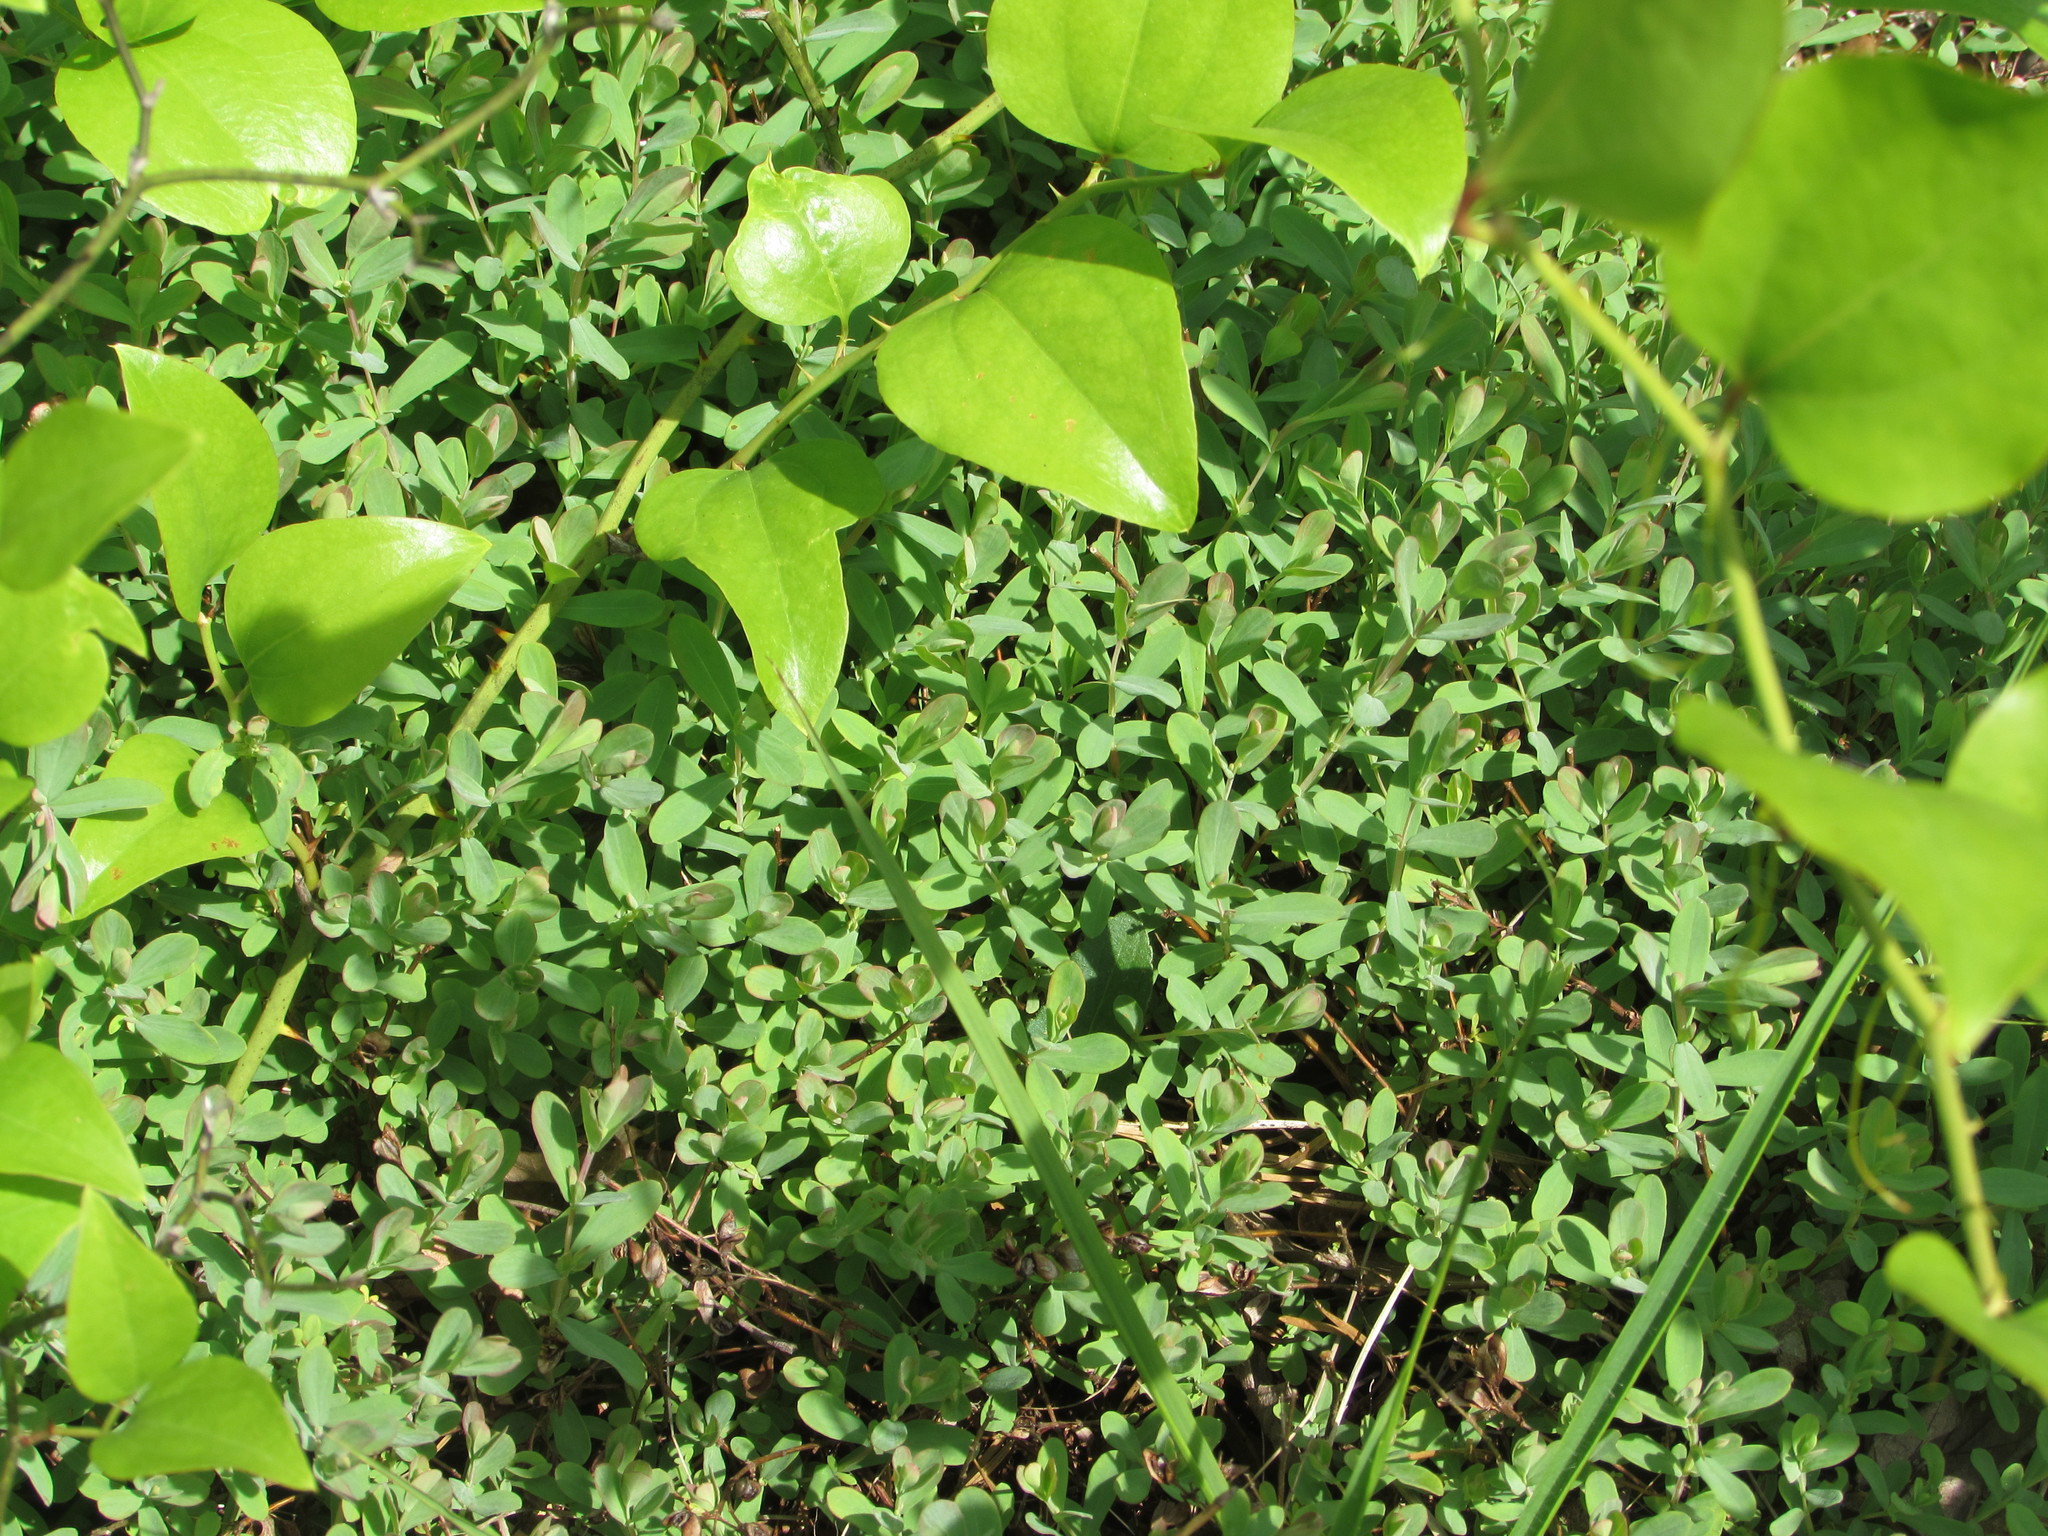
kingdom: Plantae
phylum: Tracheophyta
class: Magnoliopsida
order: Malpighiales
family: Hypericaceae
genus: Hypericum
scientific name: Hypericum hypericoides
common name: St. andrew's cross
